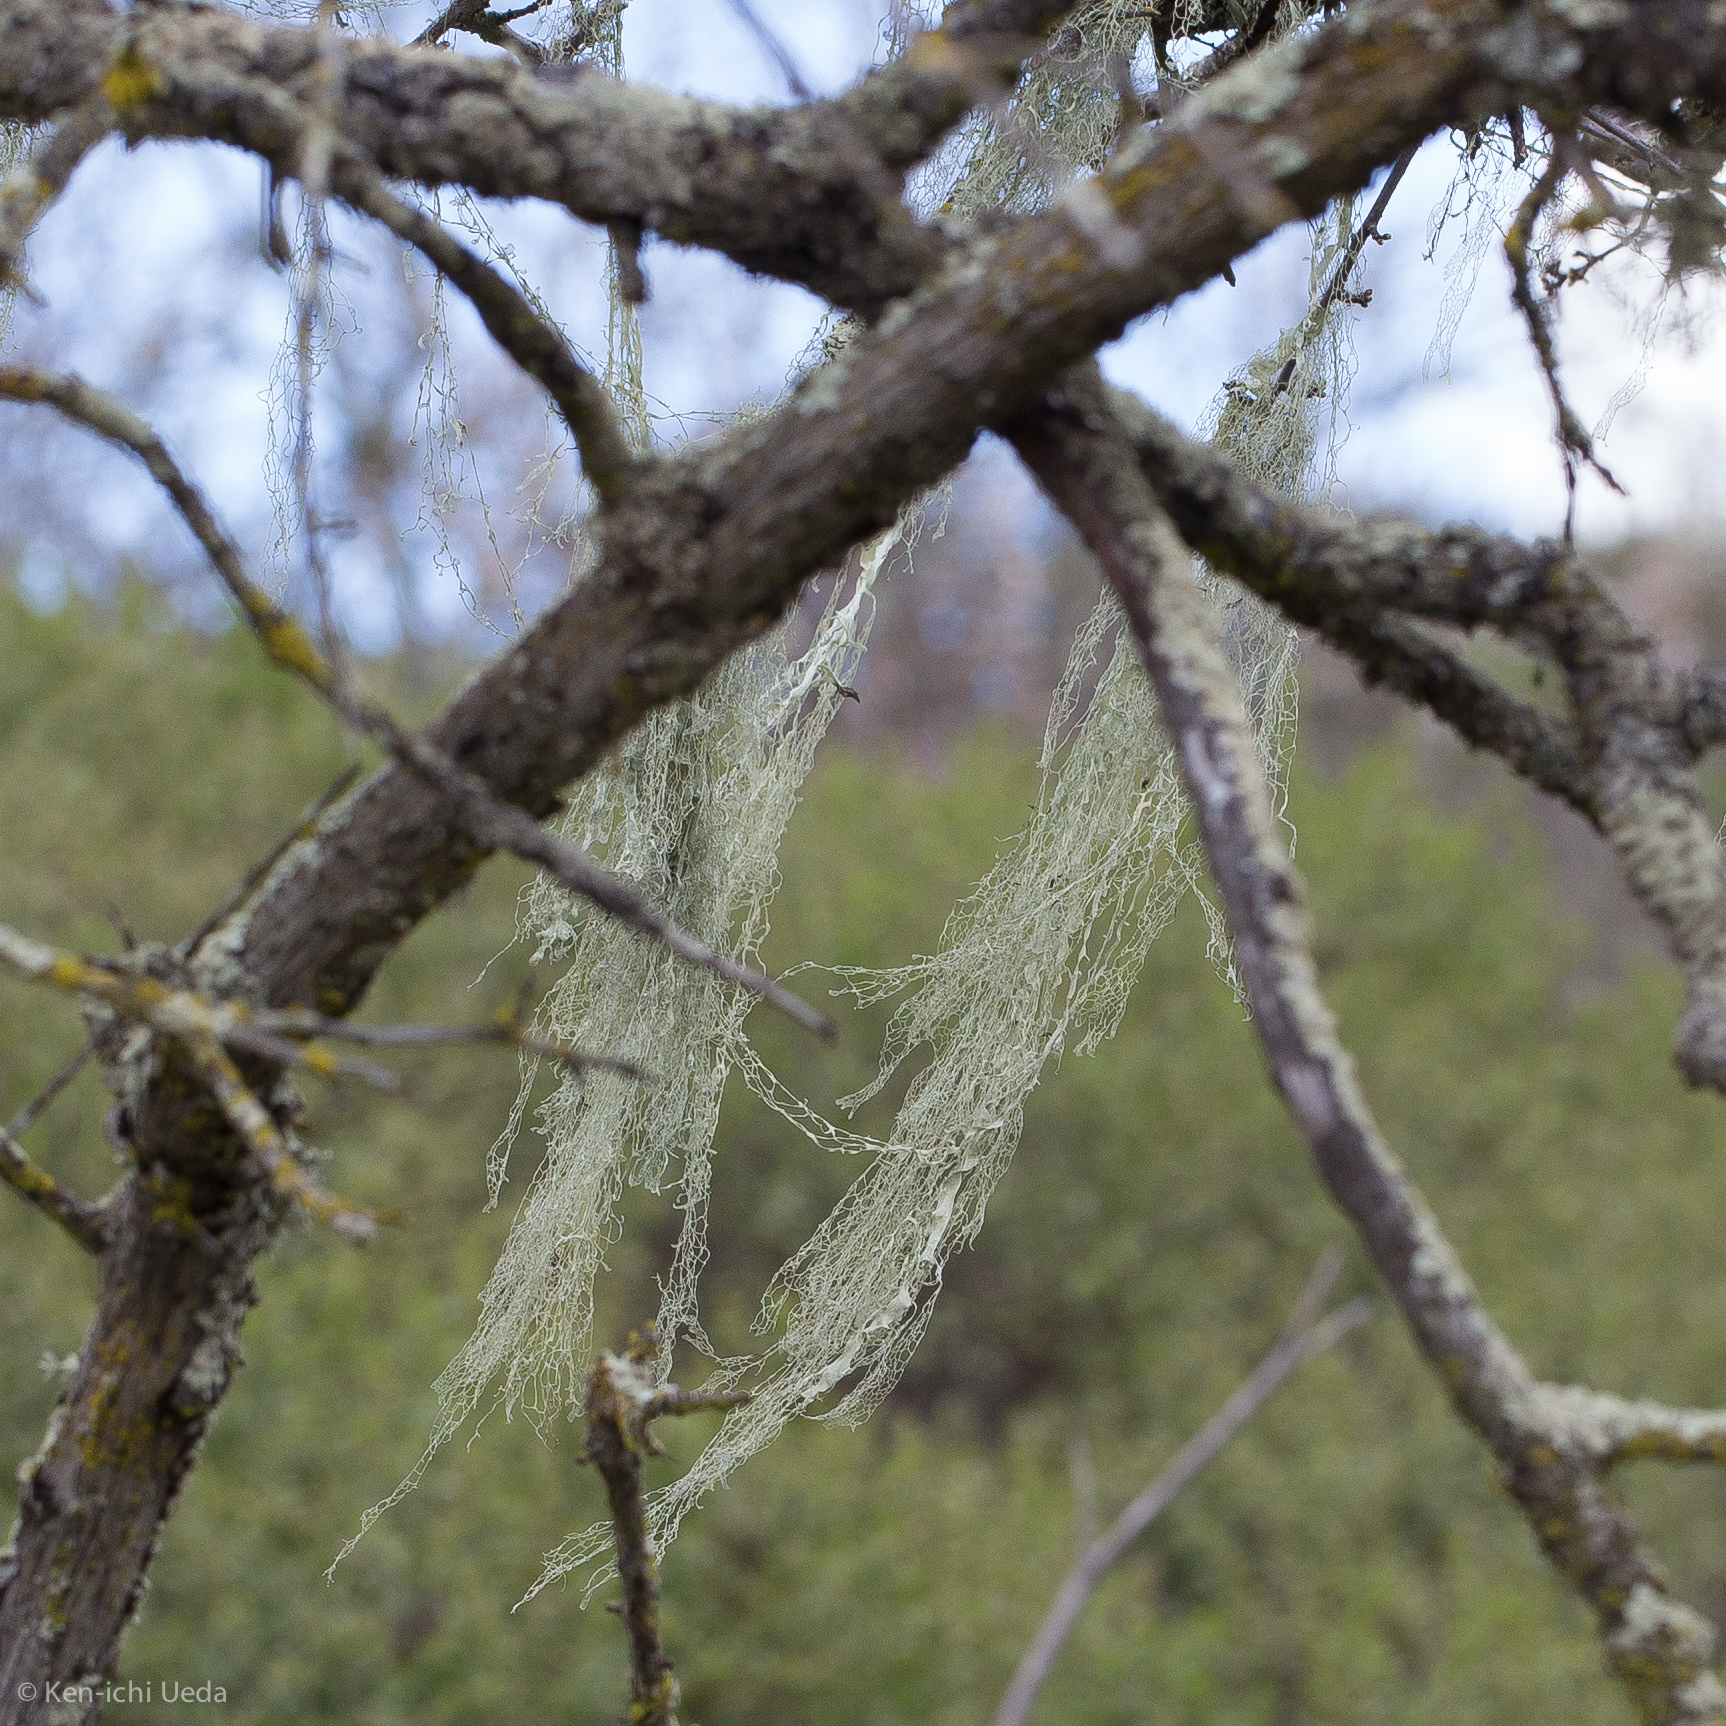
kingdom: Fungi
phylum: Ascomycota
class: Lecanoromycetes
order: Lecanorales
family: Ramalinaceae
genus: Ramalina
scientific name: Ramalina menziesii
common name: Lace lichen
